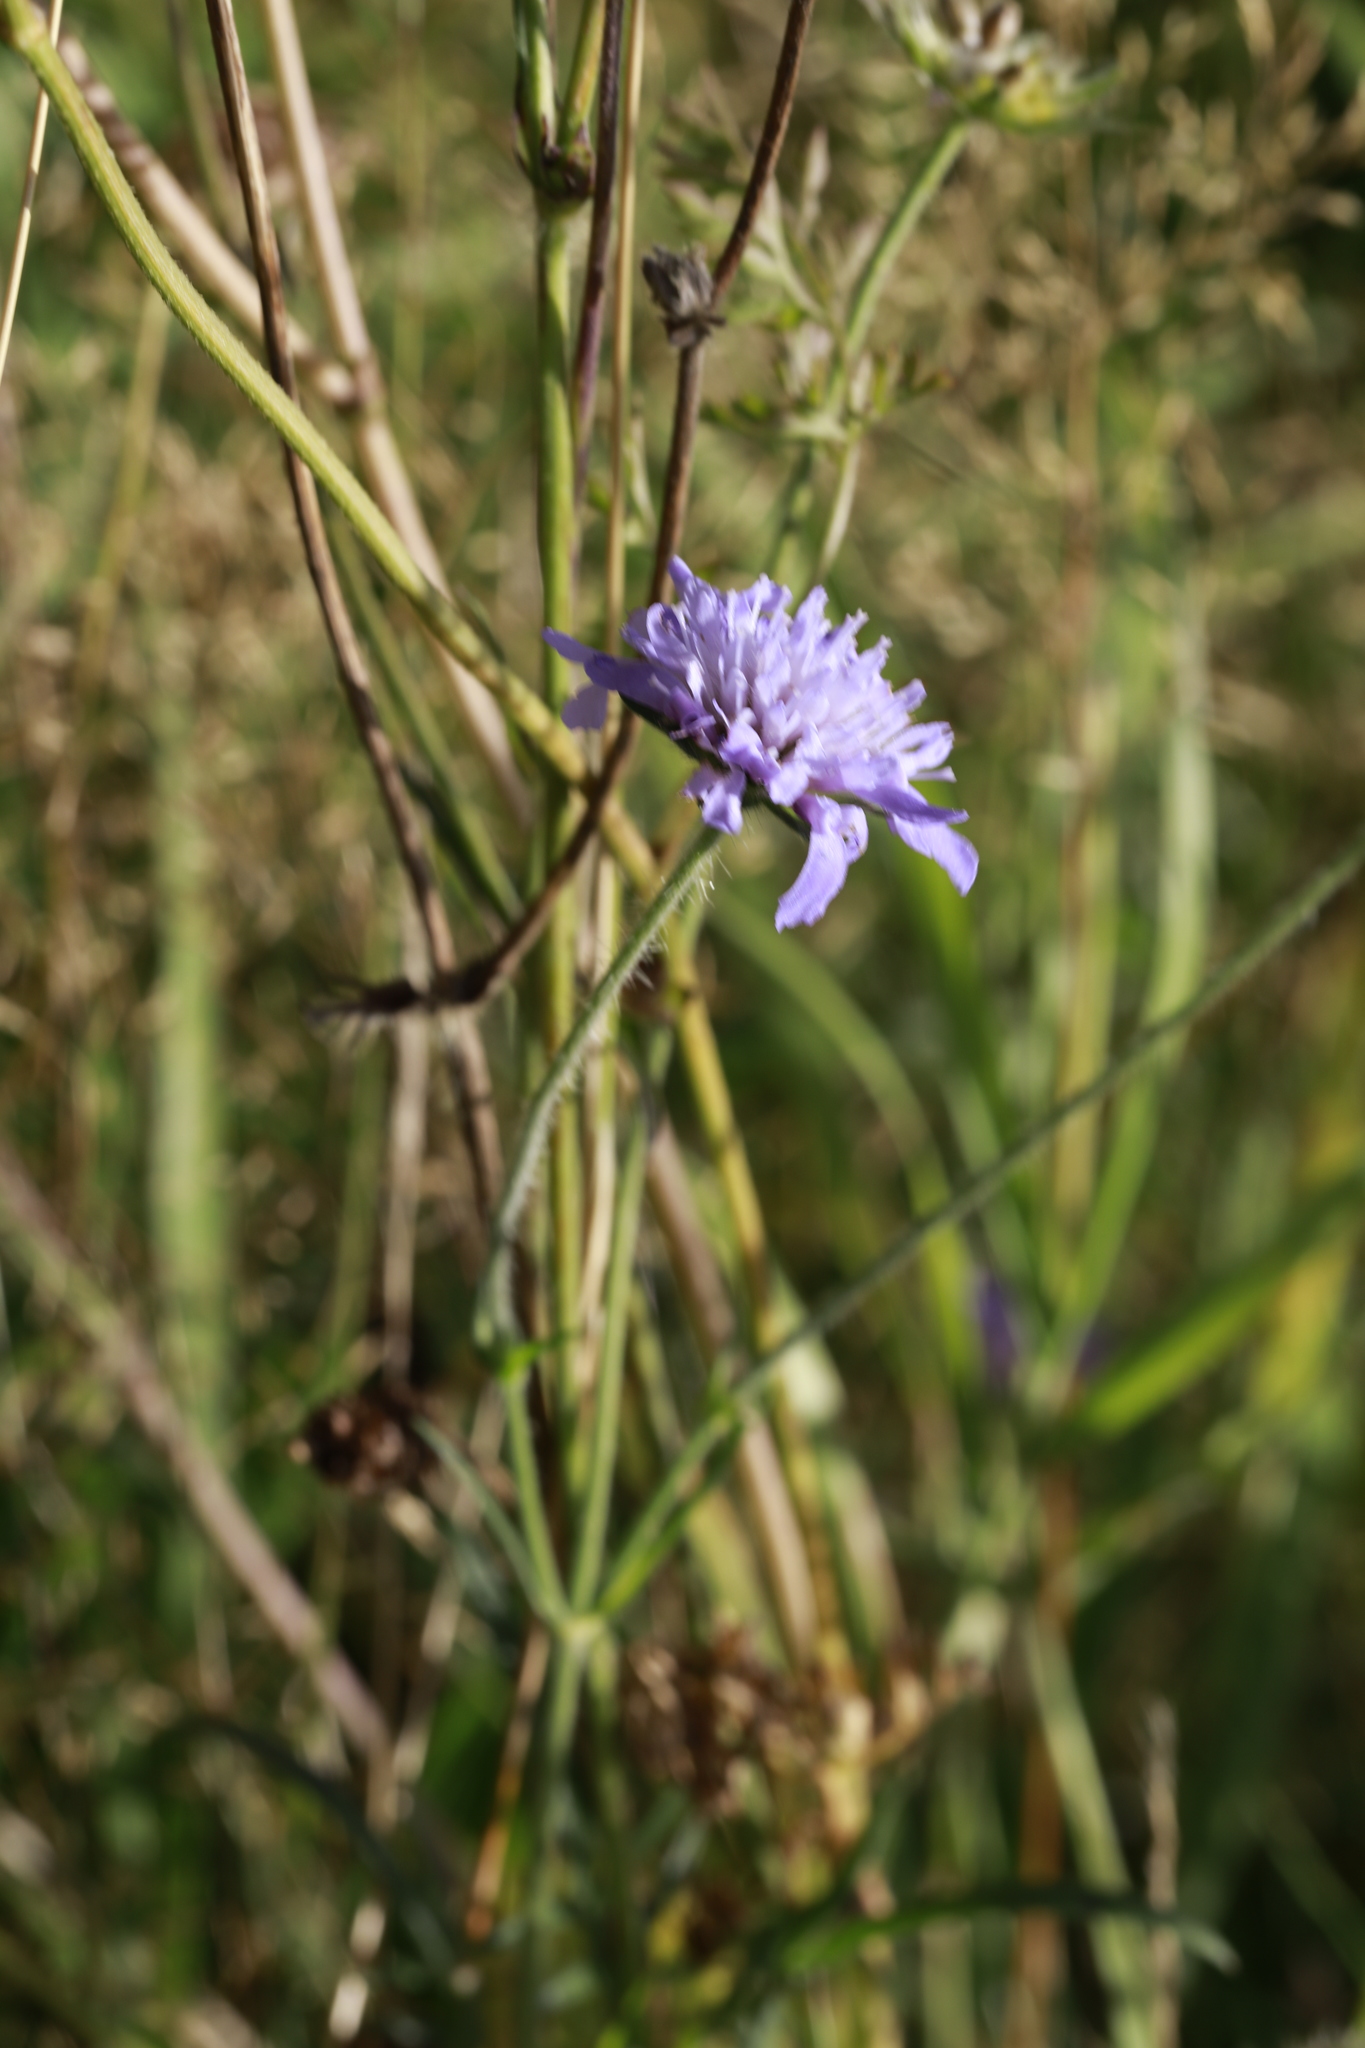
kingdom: Plantae
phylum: Tracheophyta
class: Magnoliopsida
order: Dipsacales
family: Caprifoliaceae
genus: Knautia
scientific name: Knautia arvensis
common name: Field scabiosa
